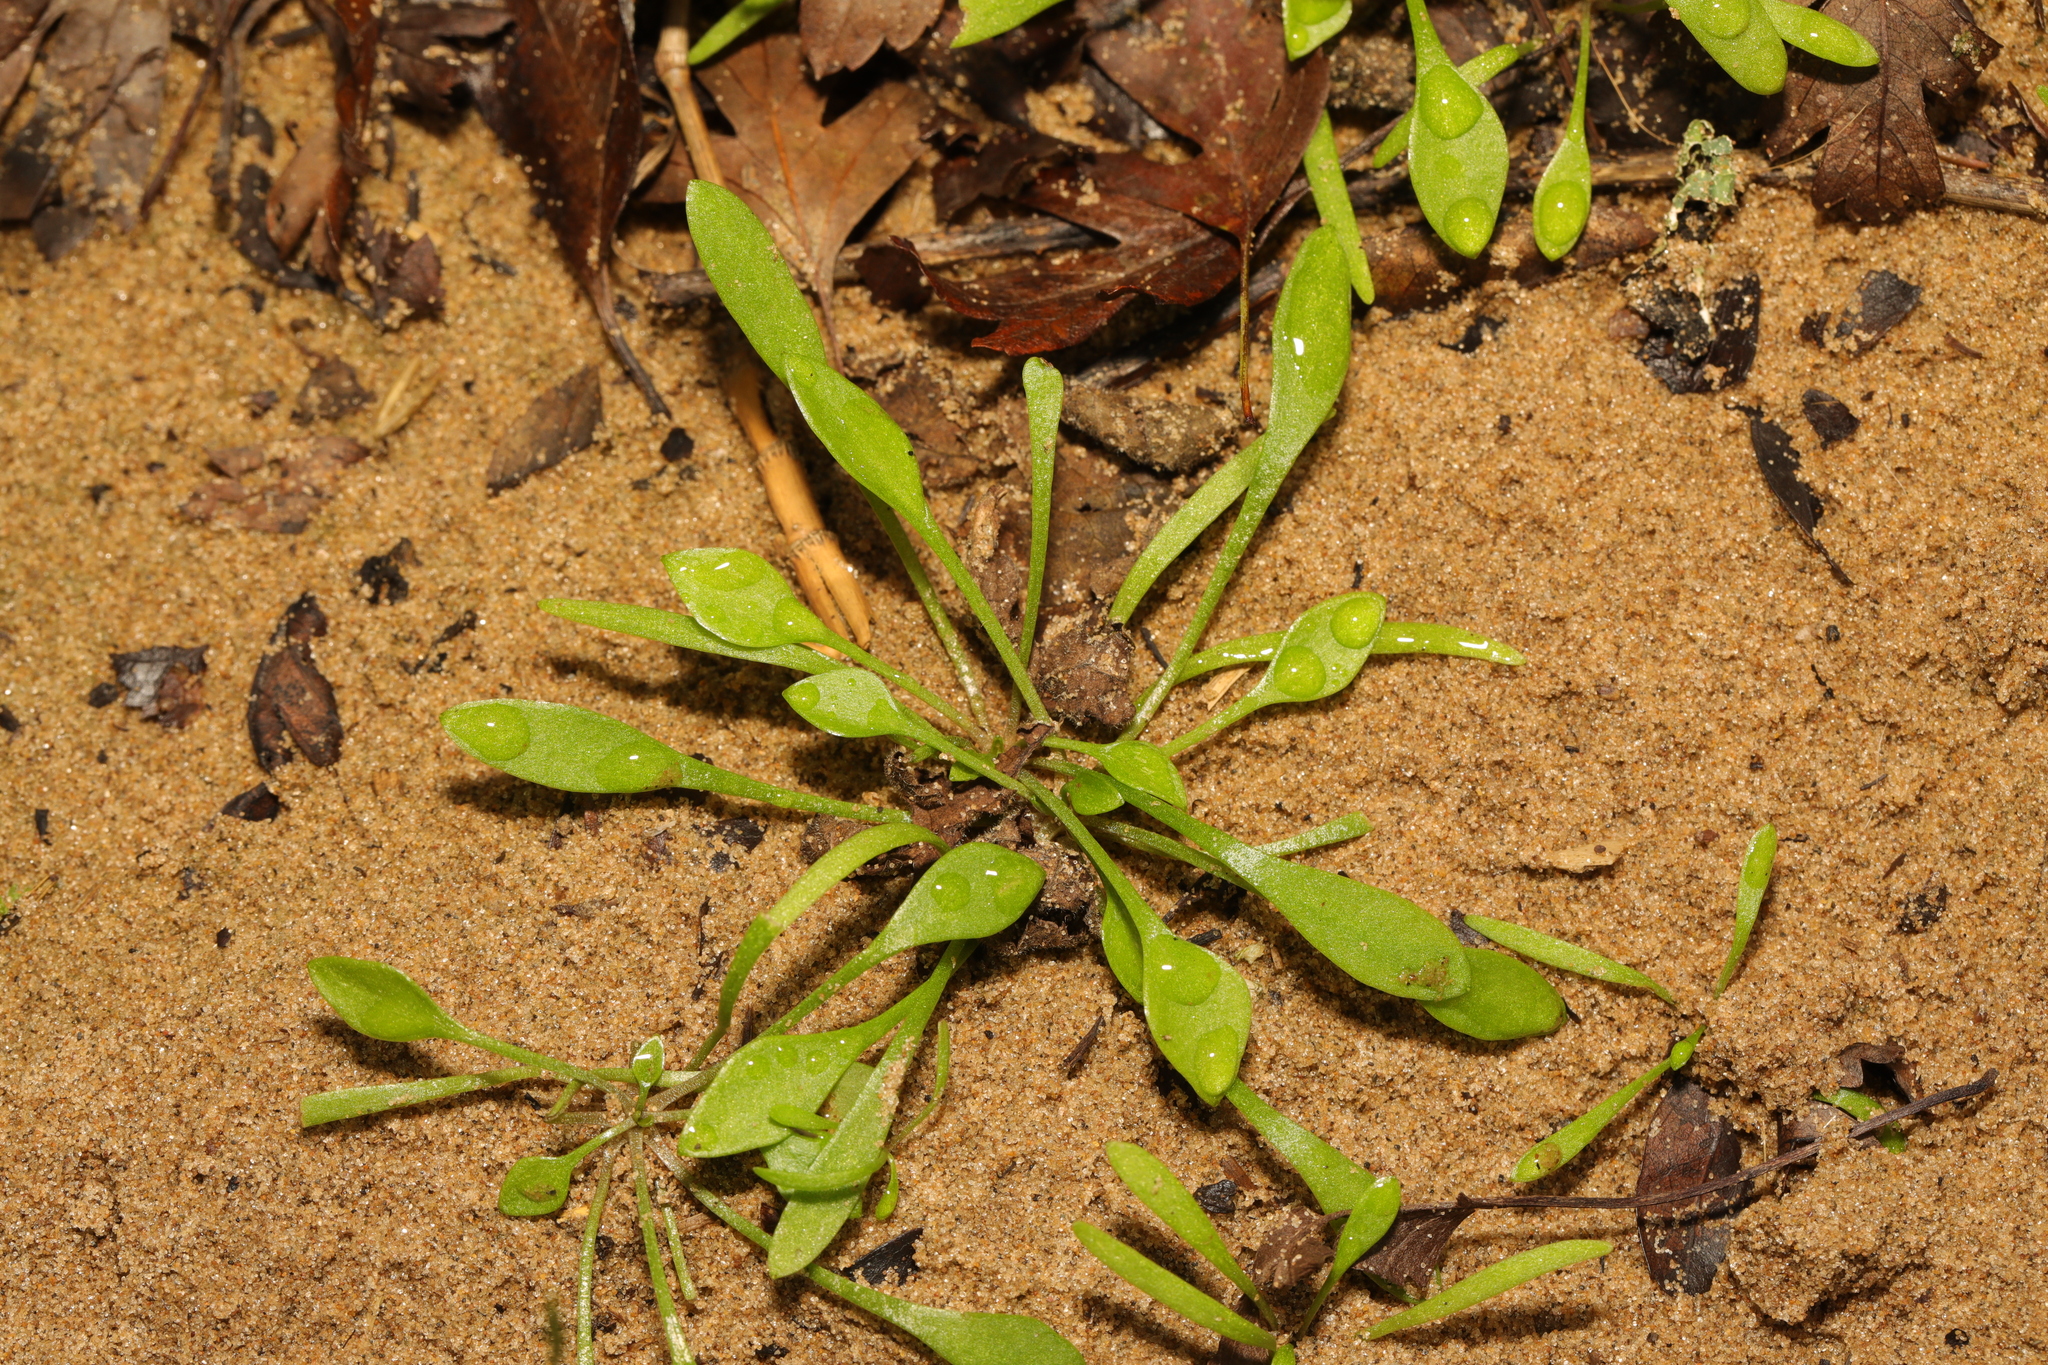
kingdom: Plantae
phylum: Tracheophyta
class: Magnoliopsida
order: Caryophyllales
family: Montiaceae
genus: Claytonia
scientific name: Claytonia perfoliata
